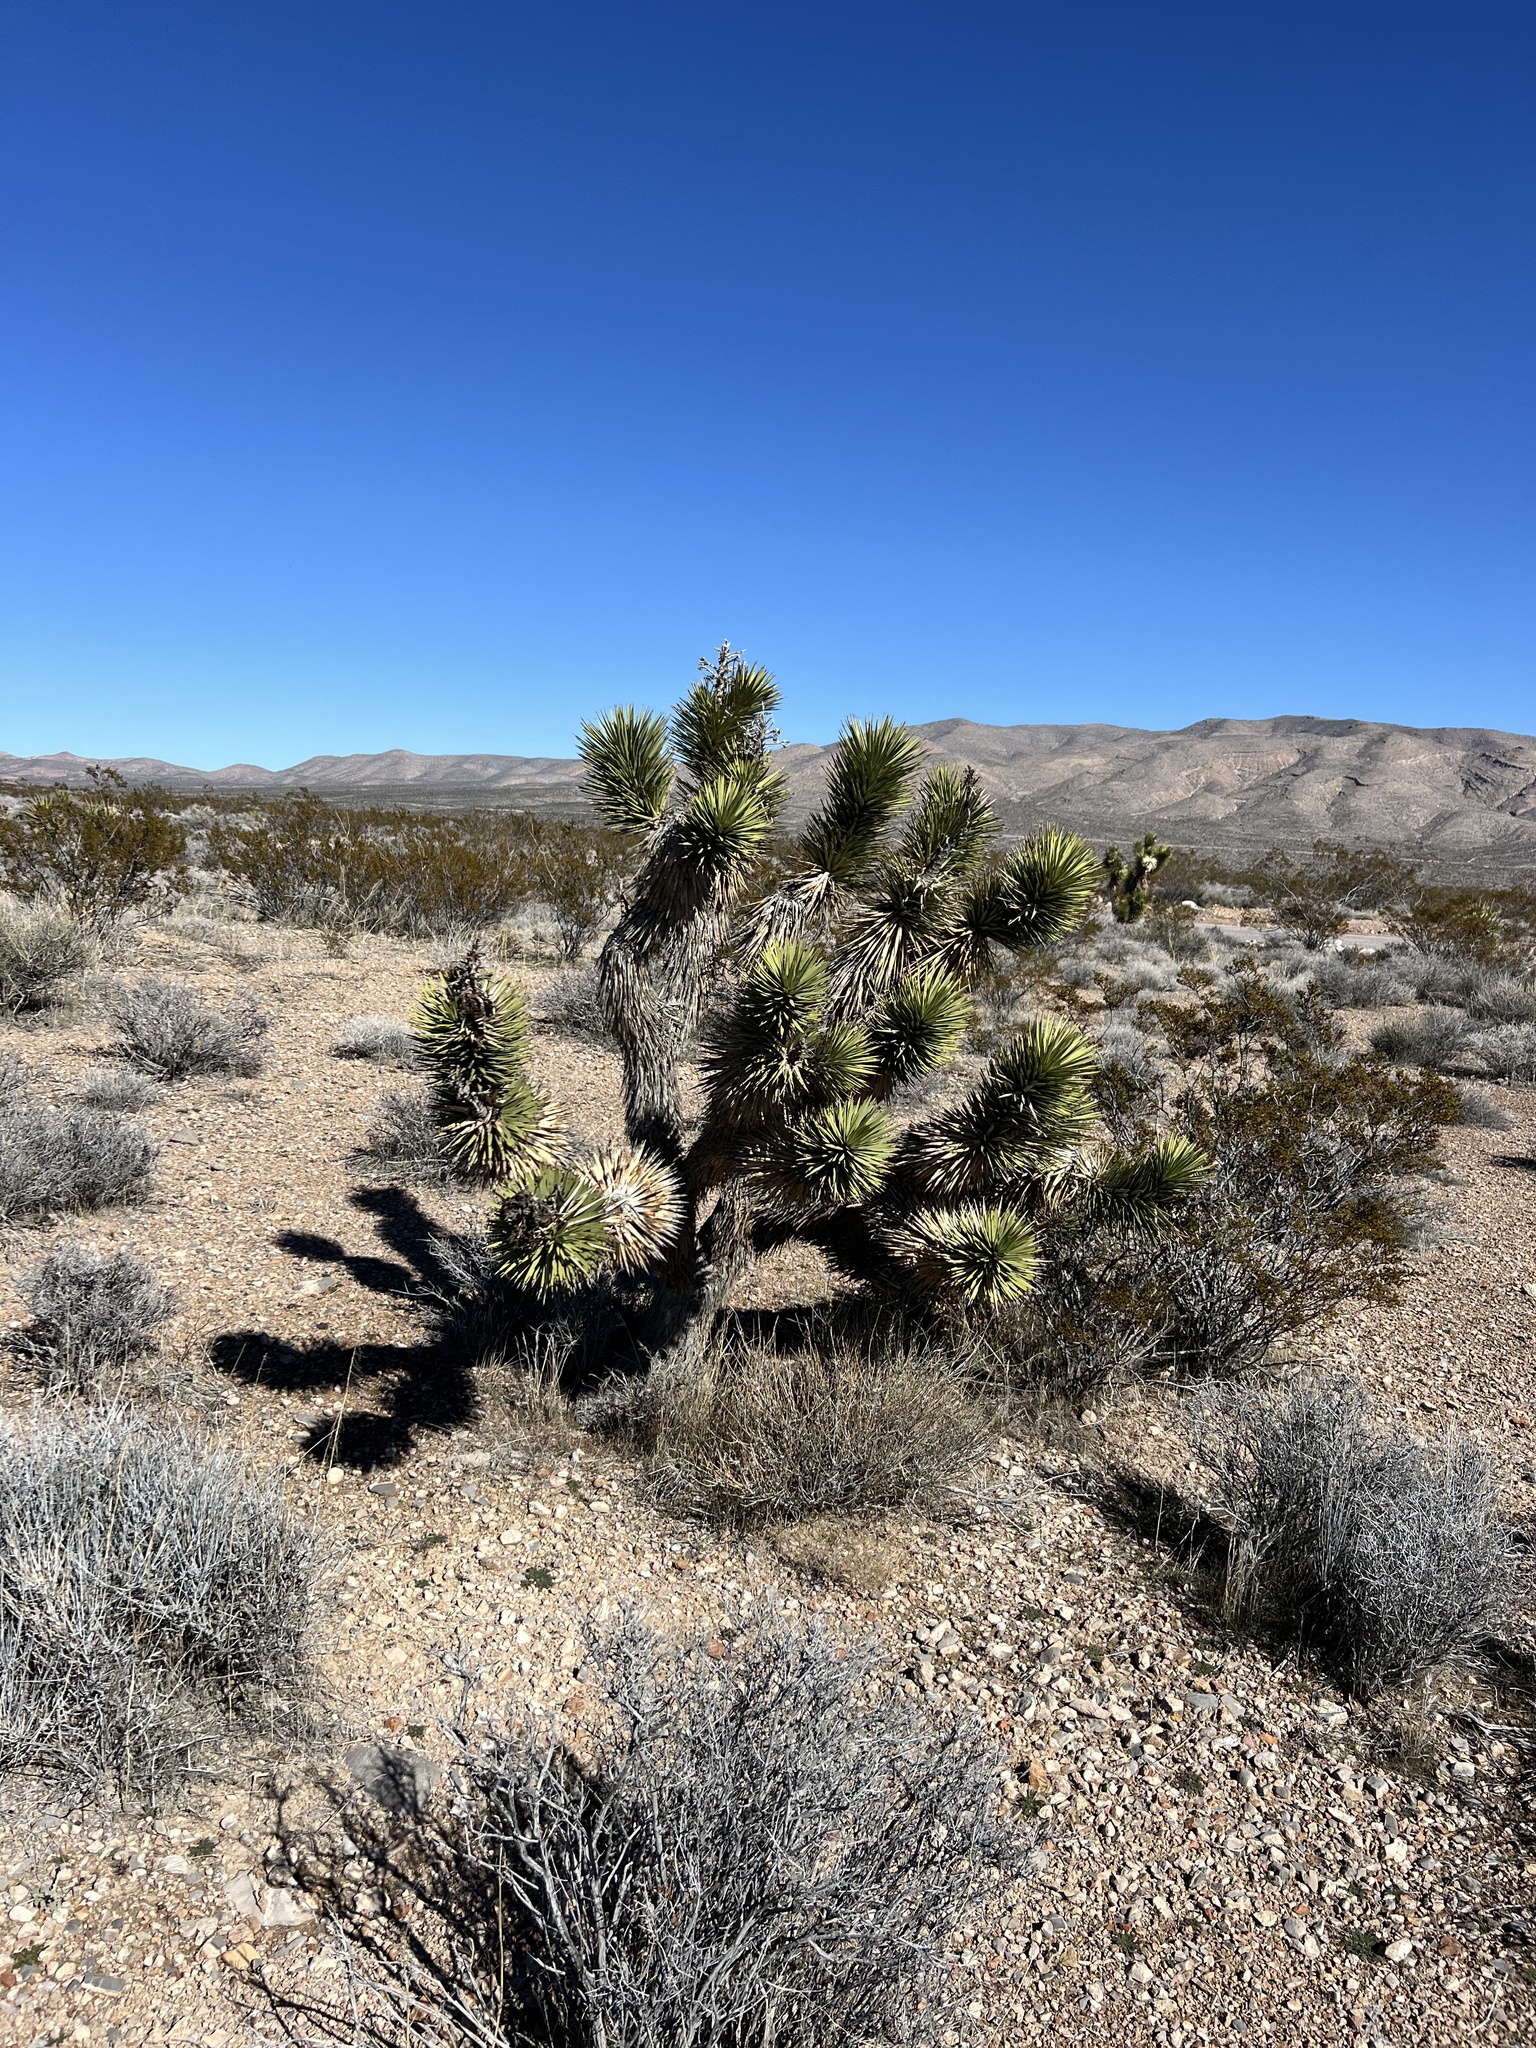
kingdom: Plantae
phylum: Tracheophyta
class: Liliopsida
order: Asparagales
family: Asparagaceae
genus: Yucca
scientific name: Yucca brevifolia
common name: Joshua tree
